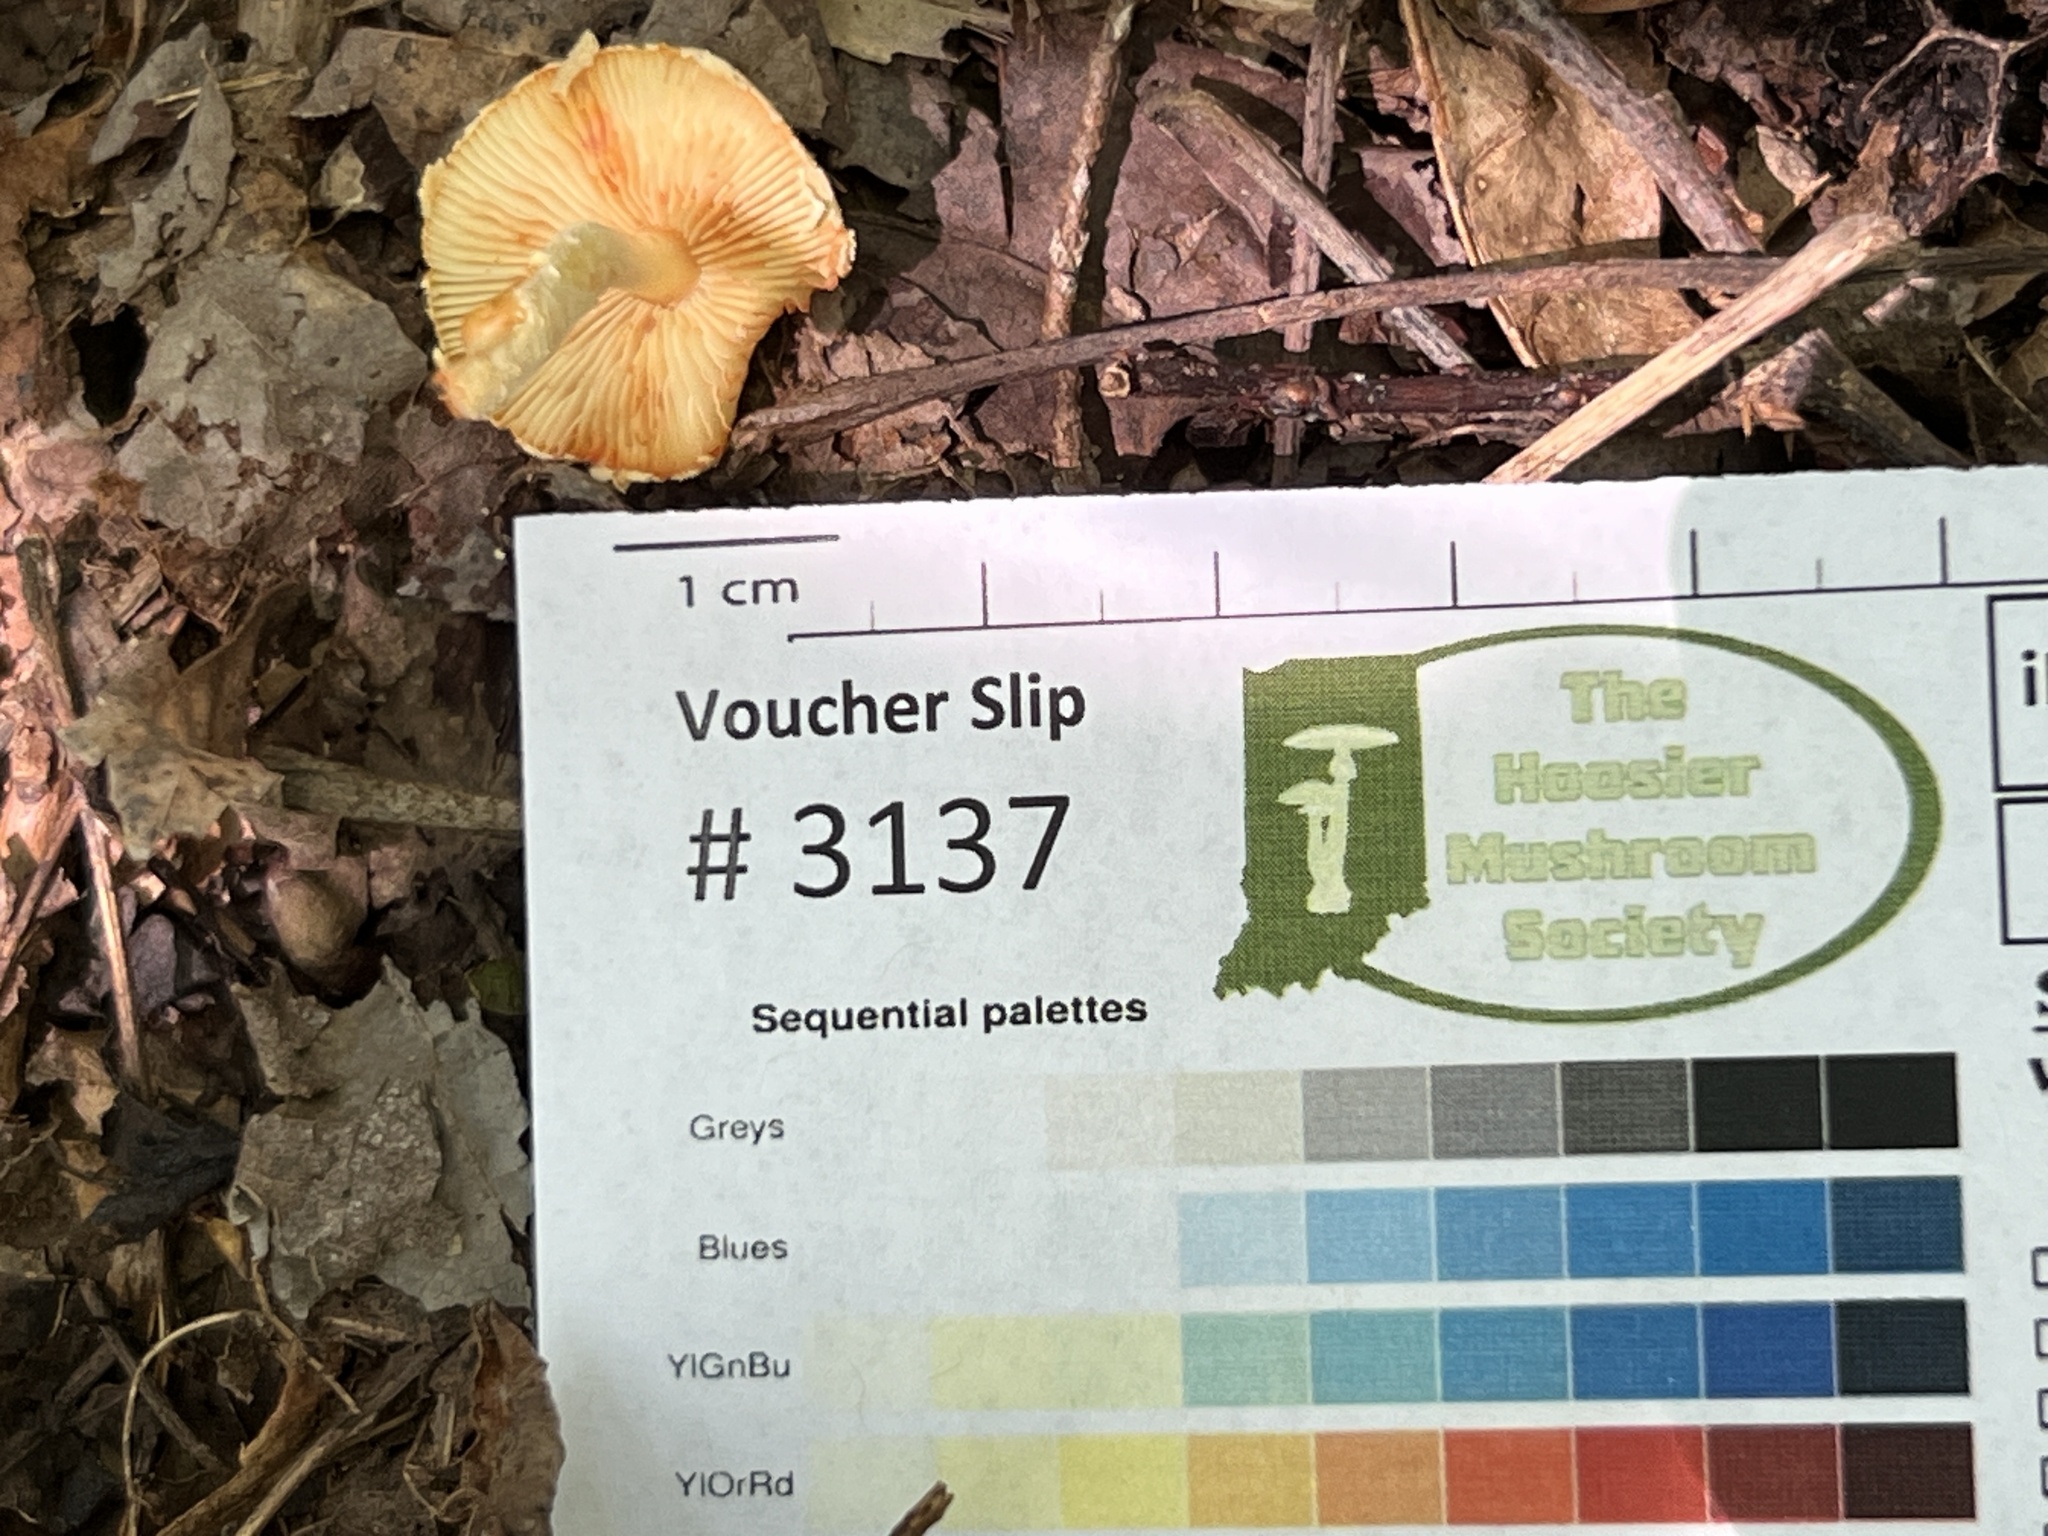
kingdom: Fungi
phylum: Basidiomycota
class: Agaricomycetes
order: Agaricales
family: Agaricaceae
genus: Lepiota
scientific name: Lepiota maculans
